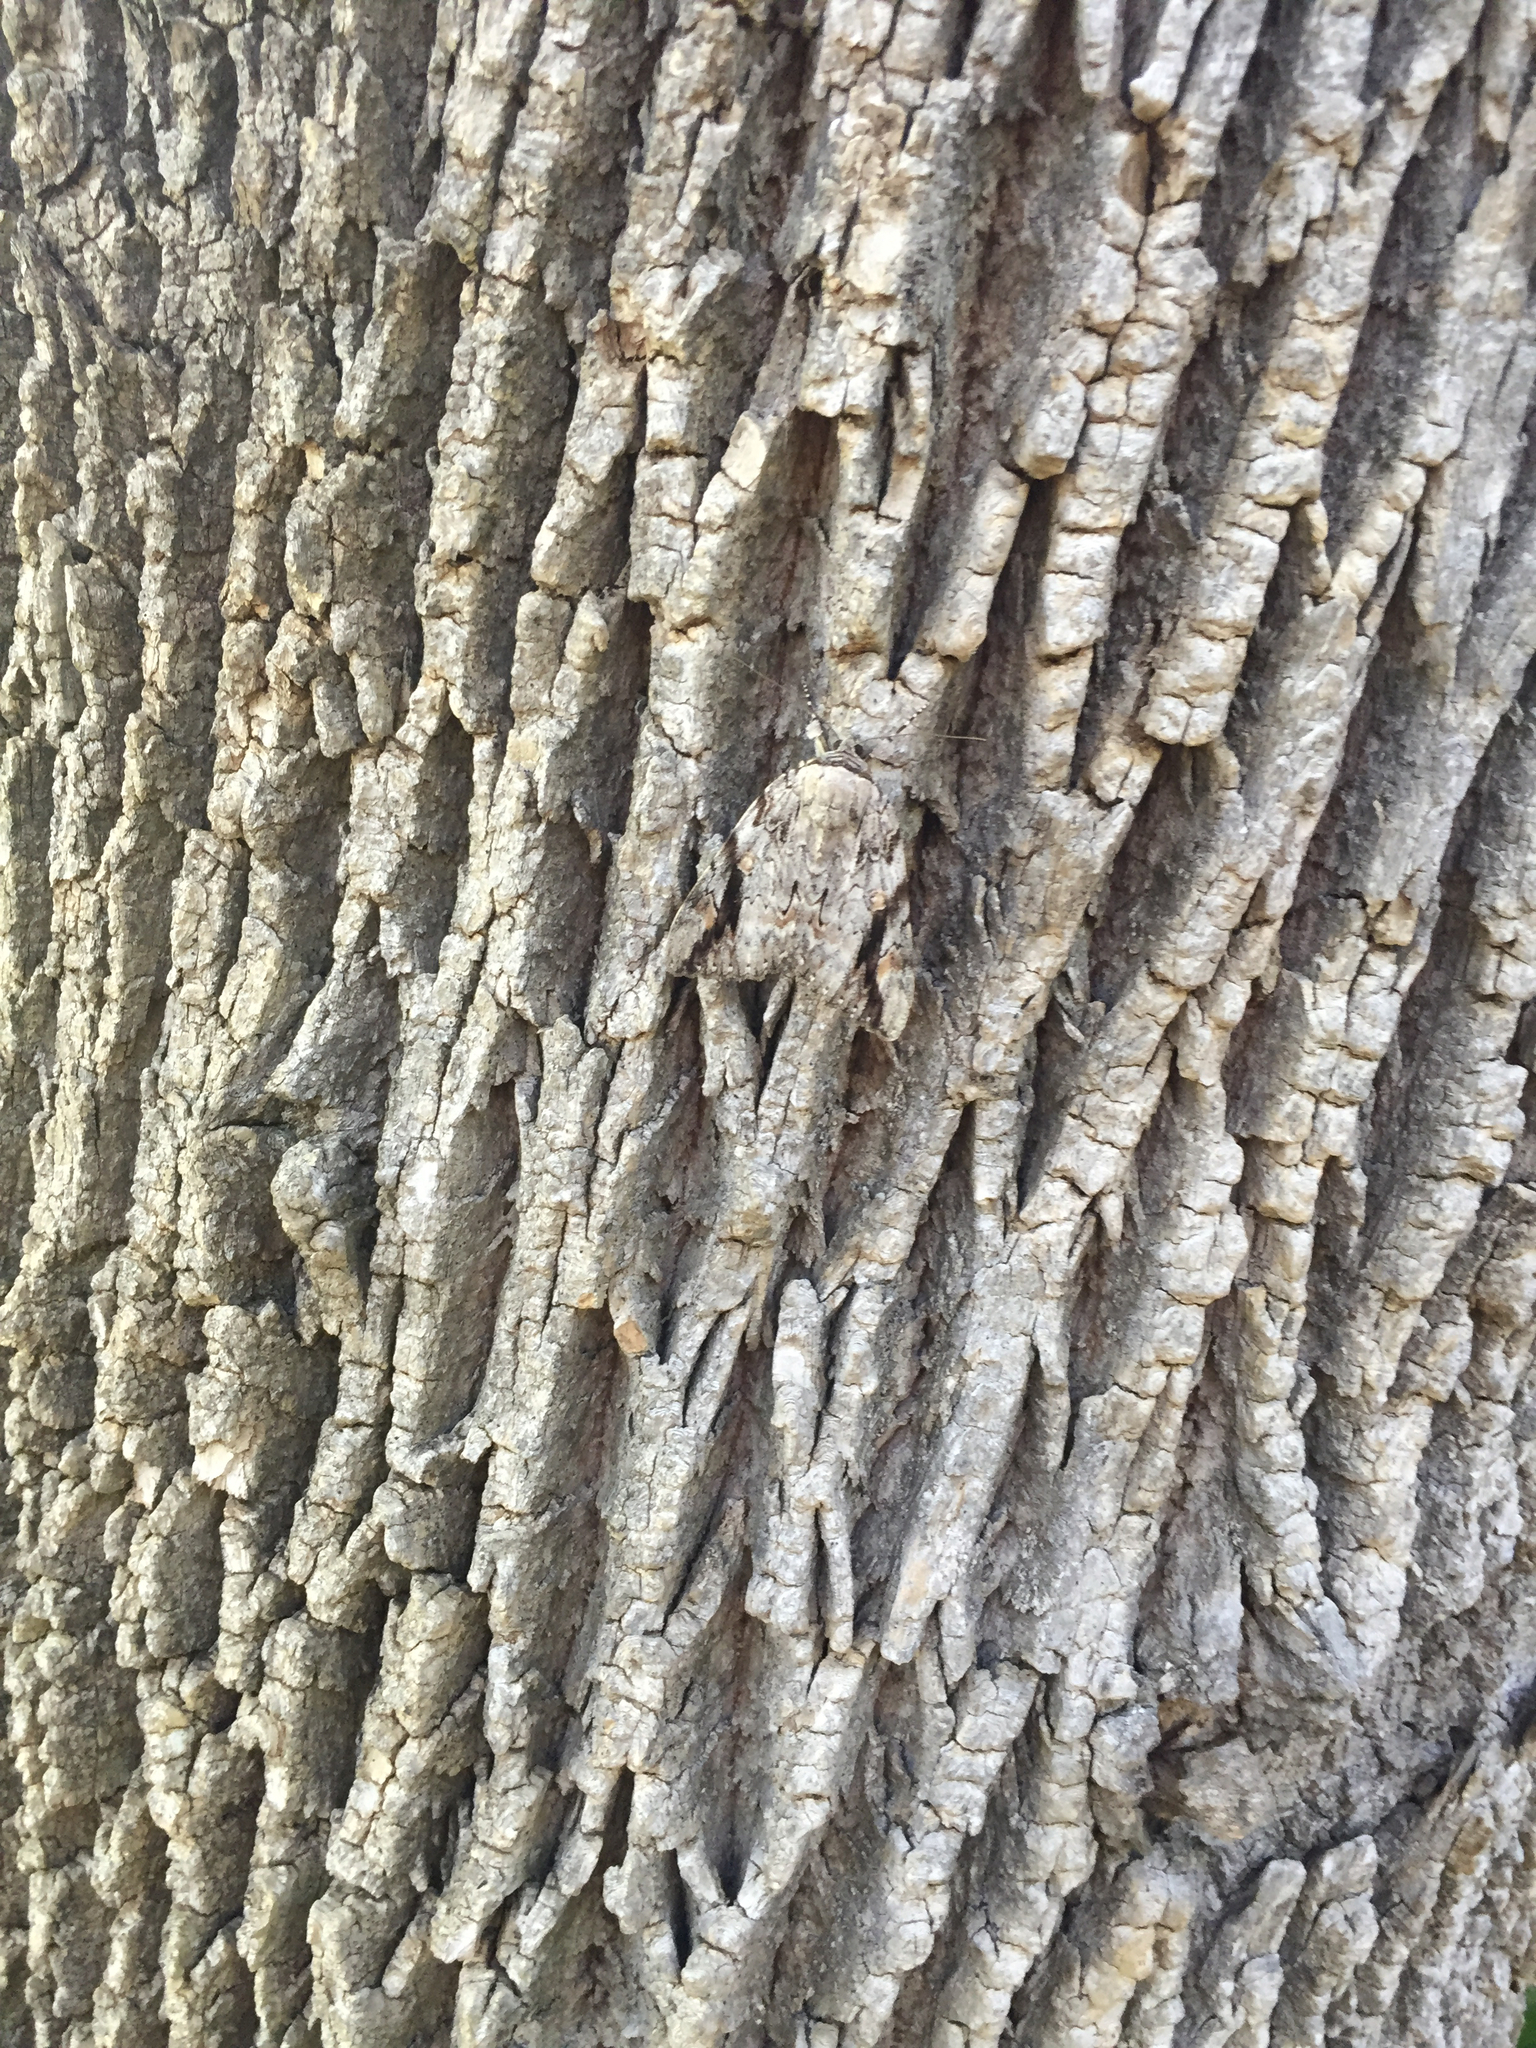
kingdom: Animalia
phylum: Arthropoda
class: Insecta
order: Lepidoptera
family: Erebidae
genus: Catocala
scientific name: Catocala maestosa
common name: Sad underwing
